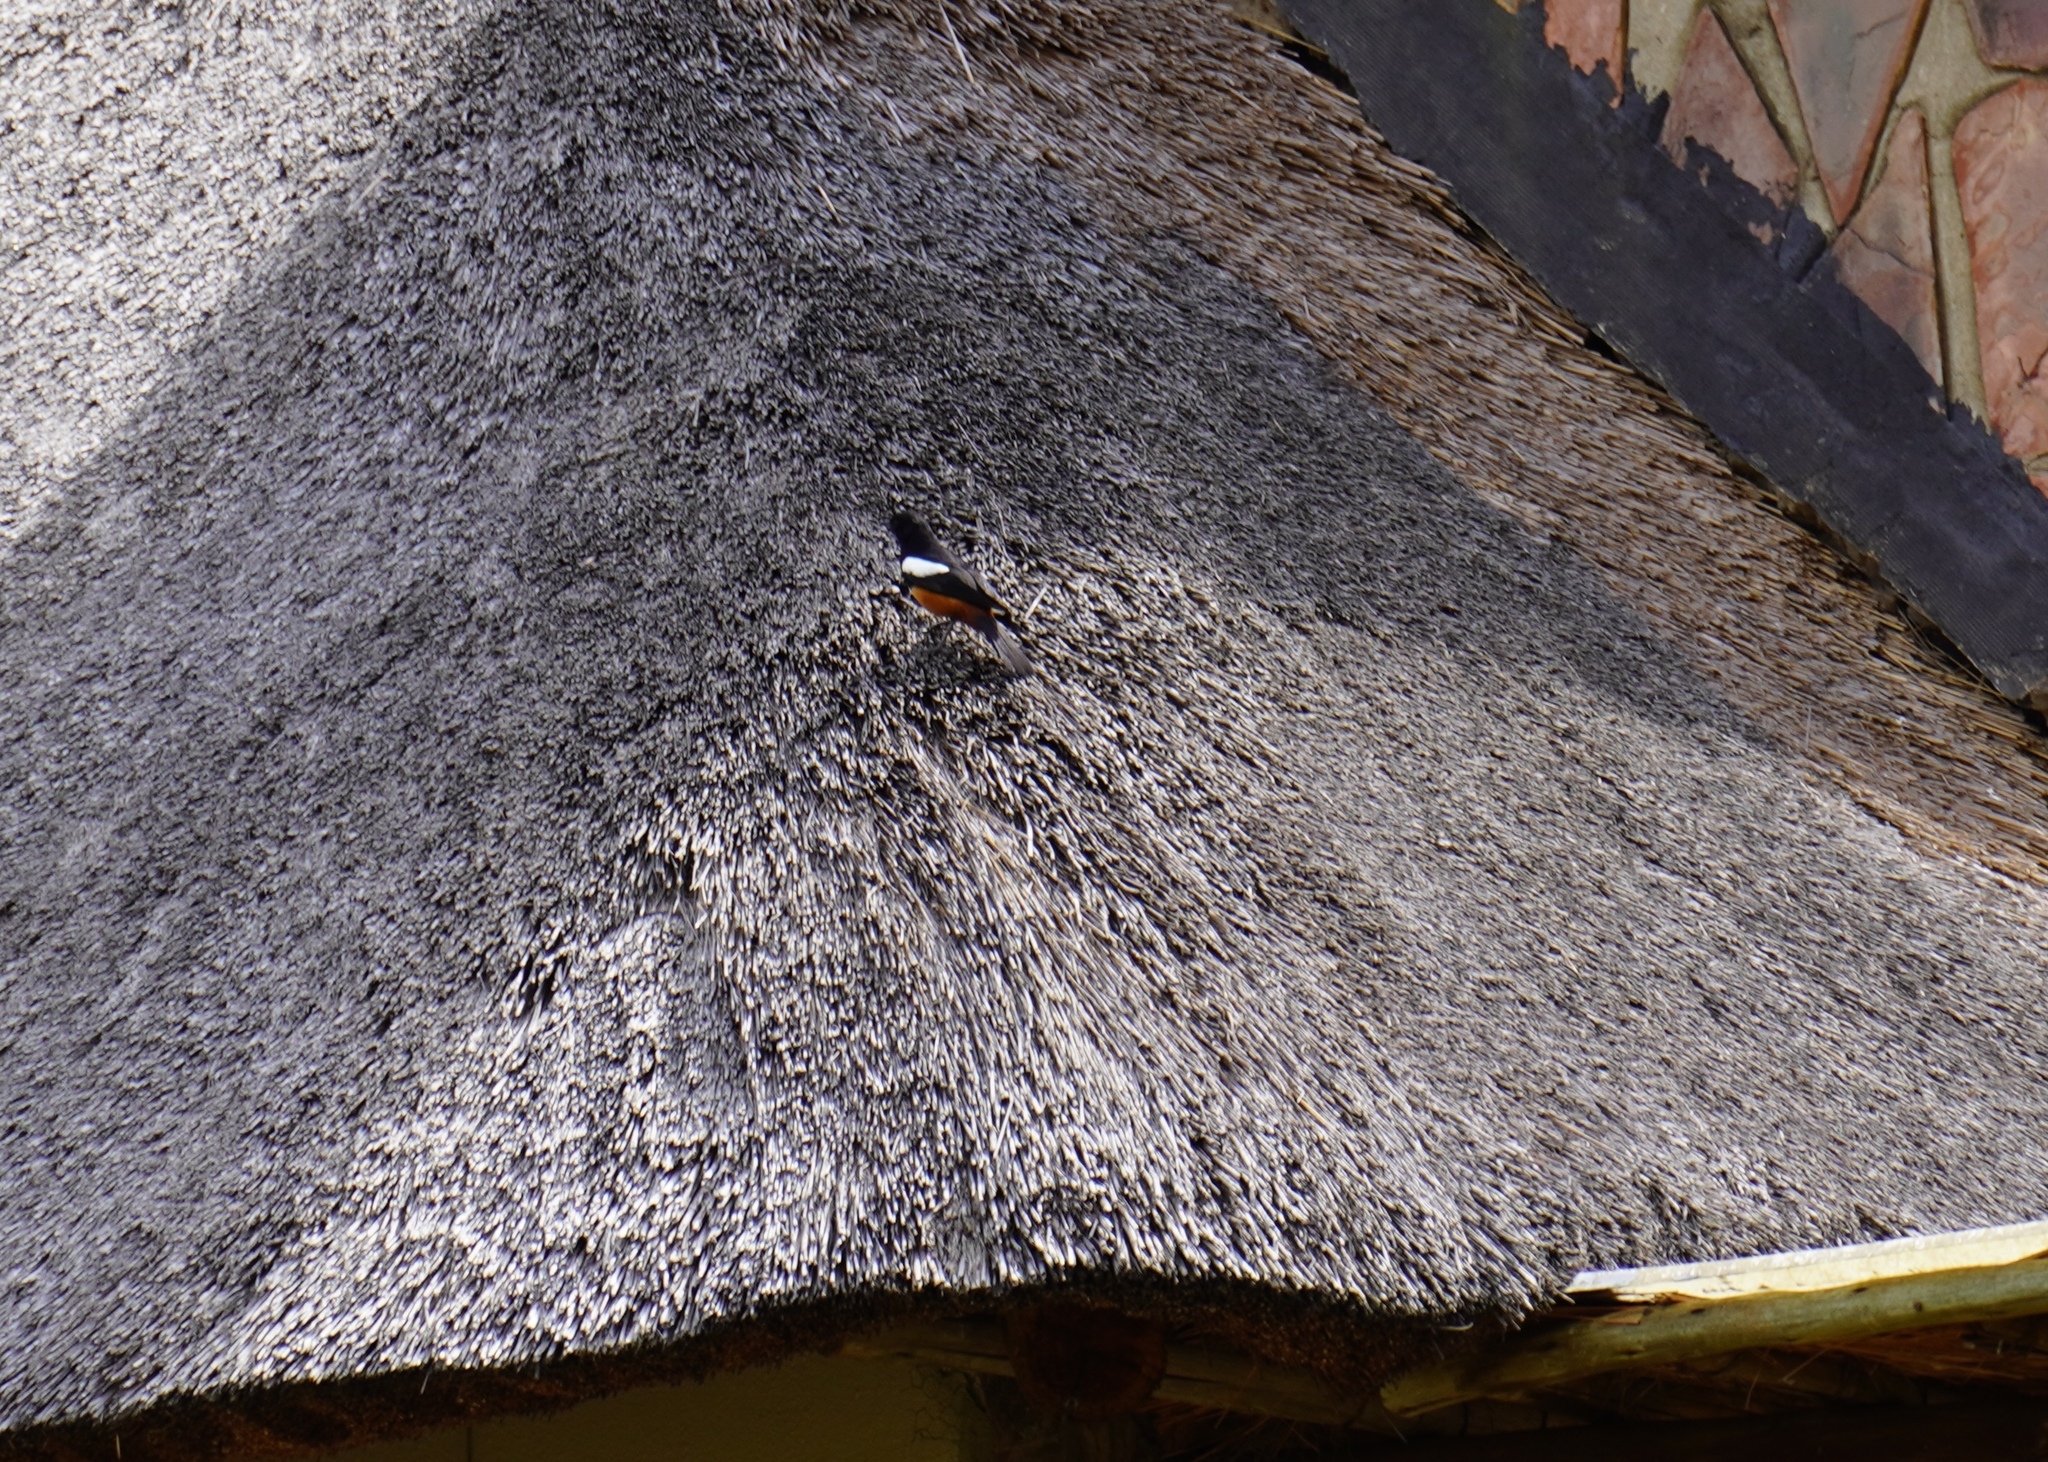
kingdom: Animalia
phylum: Chordata
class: Aves
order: Passeriformes
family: Muscicapidae
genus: Thamnolaea
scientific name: Thamnolaea cinnamomeiventris
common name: Mocking cliff chat
